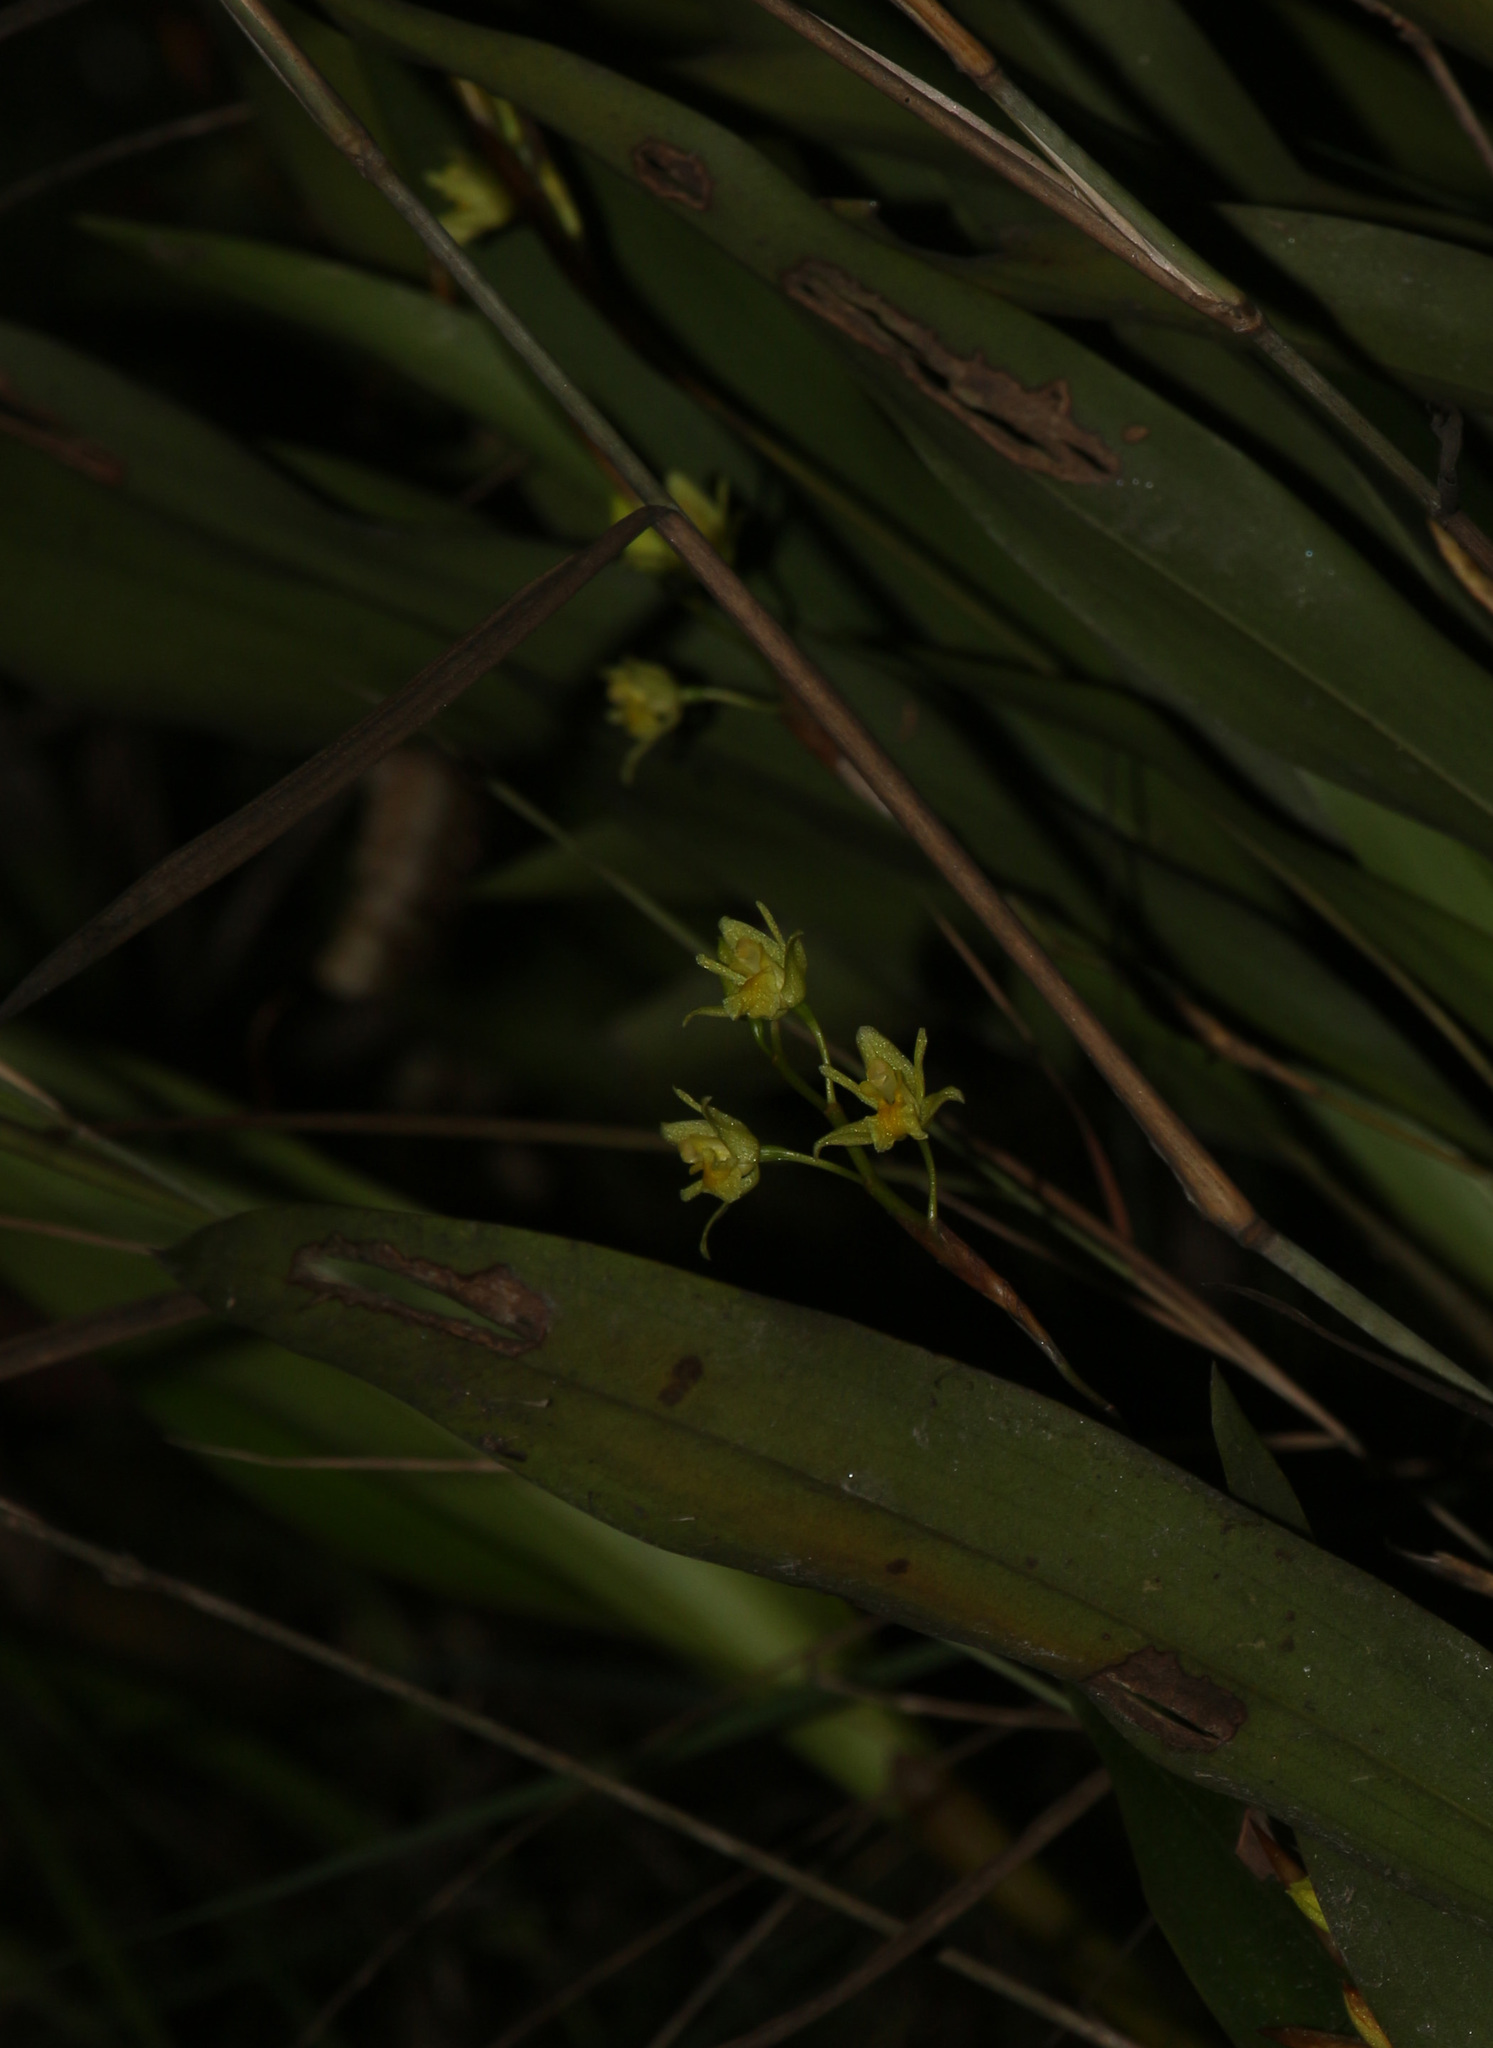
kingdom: Plantae
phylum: Tracheophyta
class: Liliopsida
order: Asparagales
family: Orchidaceae
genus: Coelogyne
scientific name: Coelogyne prolifera
